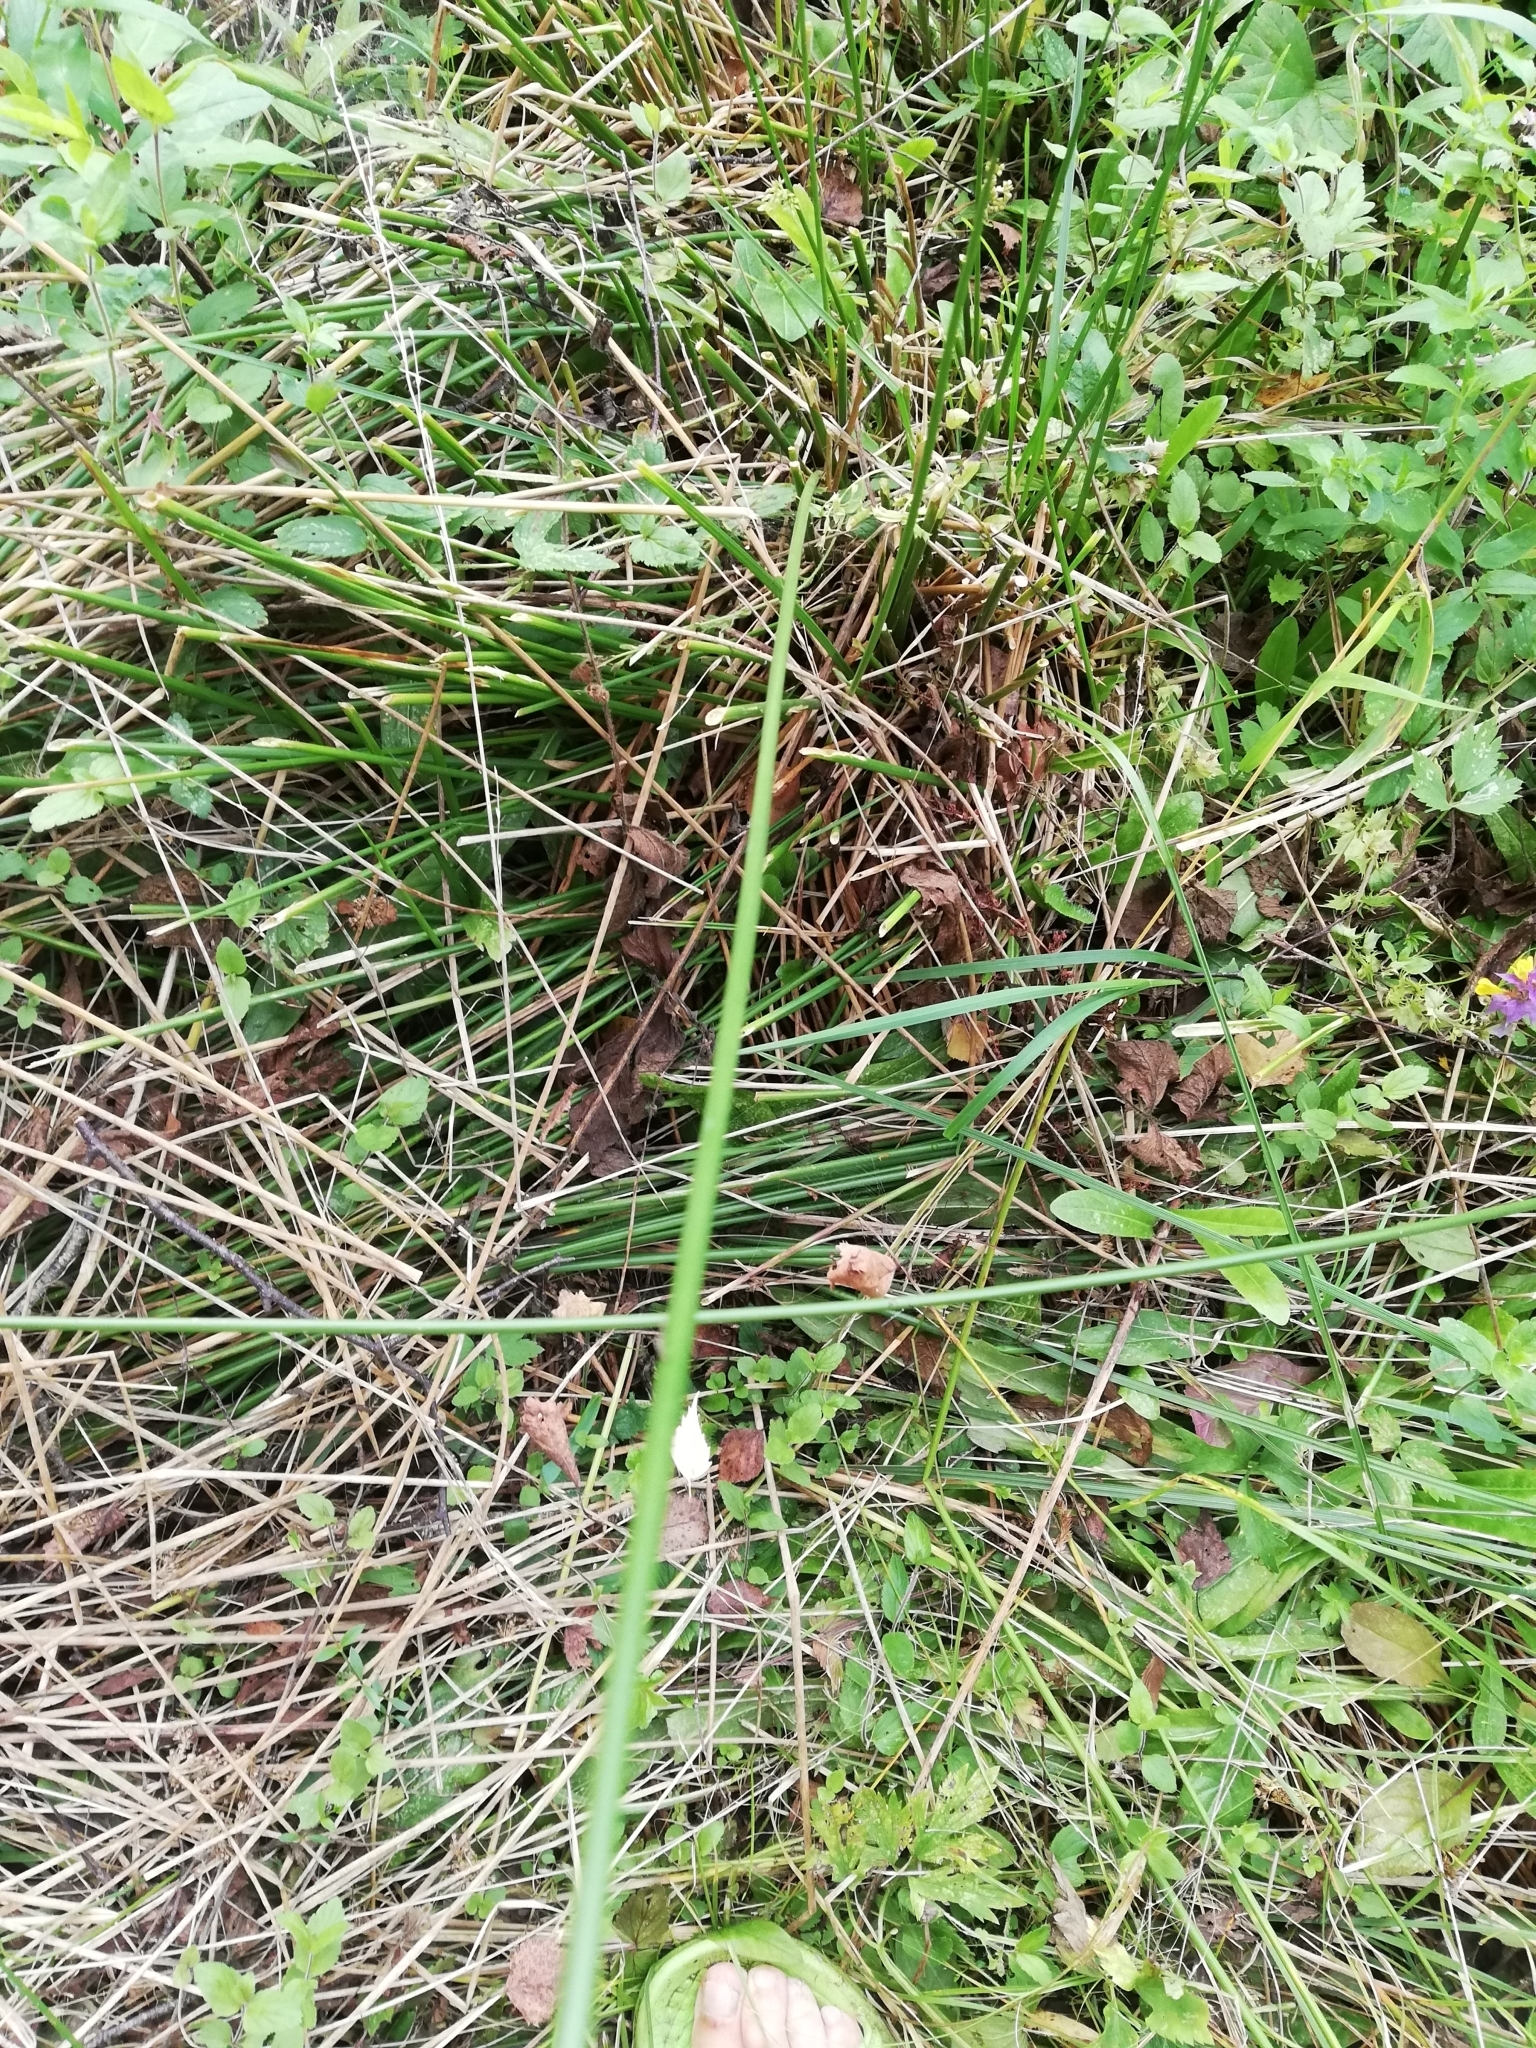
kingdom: Plantae
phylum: Tracheophyta
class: Liliopsida
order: Poales
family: Juncaceae
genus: Juncus
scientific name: Juncus effusus
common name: Soft rush
